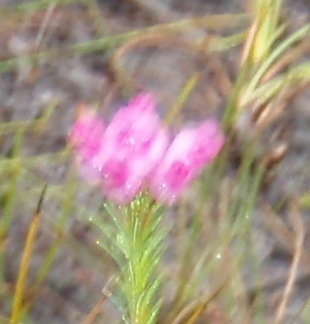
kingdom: Plantae
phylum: Tracheophyta
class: Magnoliopsida
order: Ericales
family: Ericaceae
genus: Erica
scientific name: Erica obliqua
